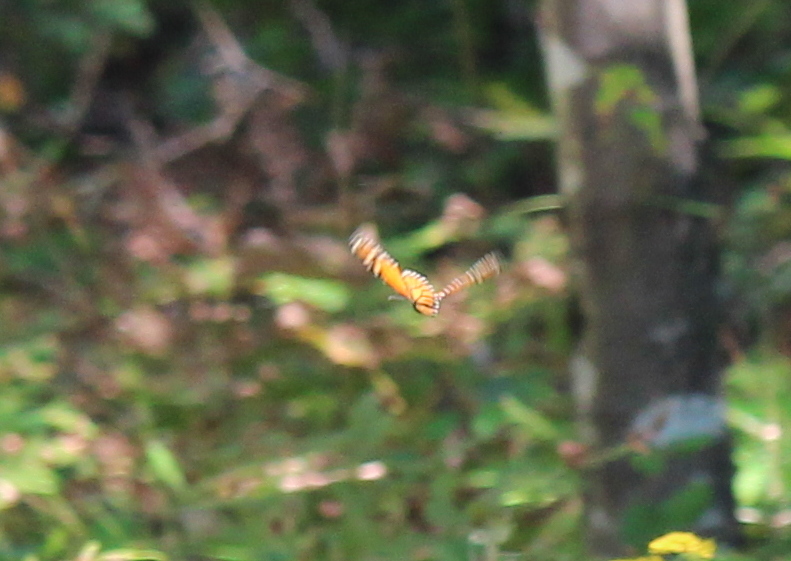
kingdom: Animalia
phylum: Arthropoda
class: Insecta
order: Lepidoptera
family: Nymphalidae
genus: Danaus
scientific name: Danaus plexippus
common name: Monarch
